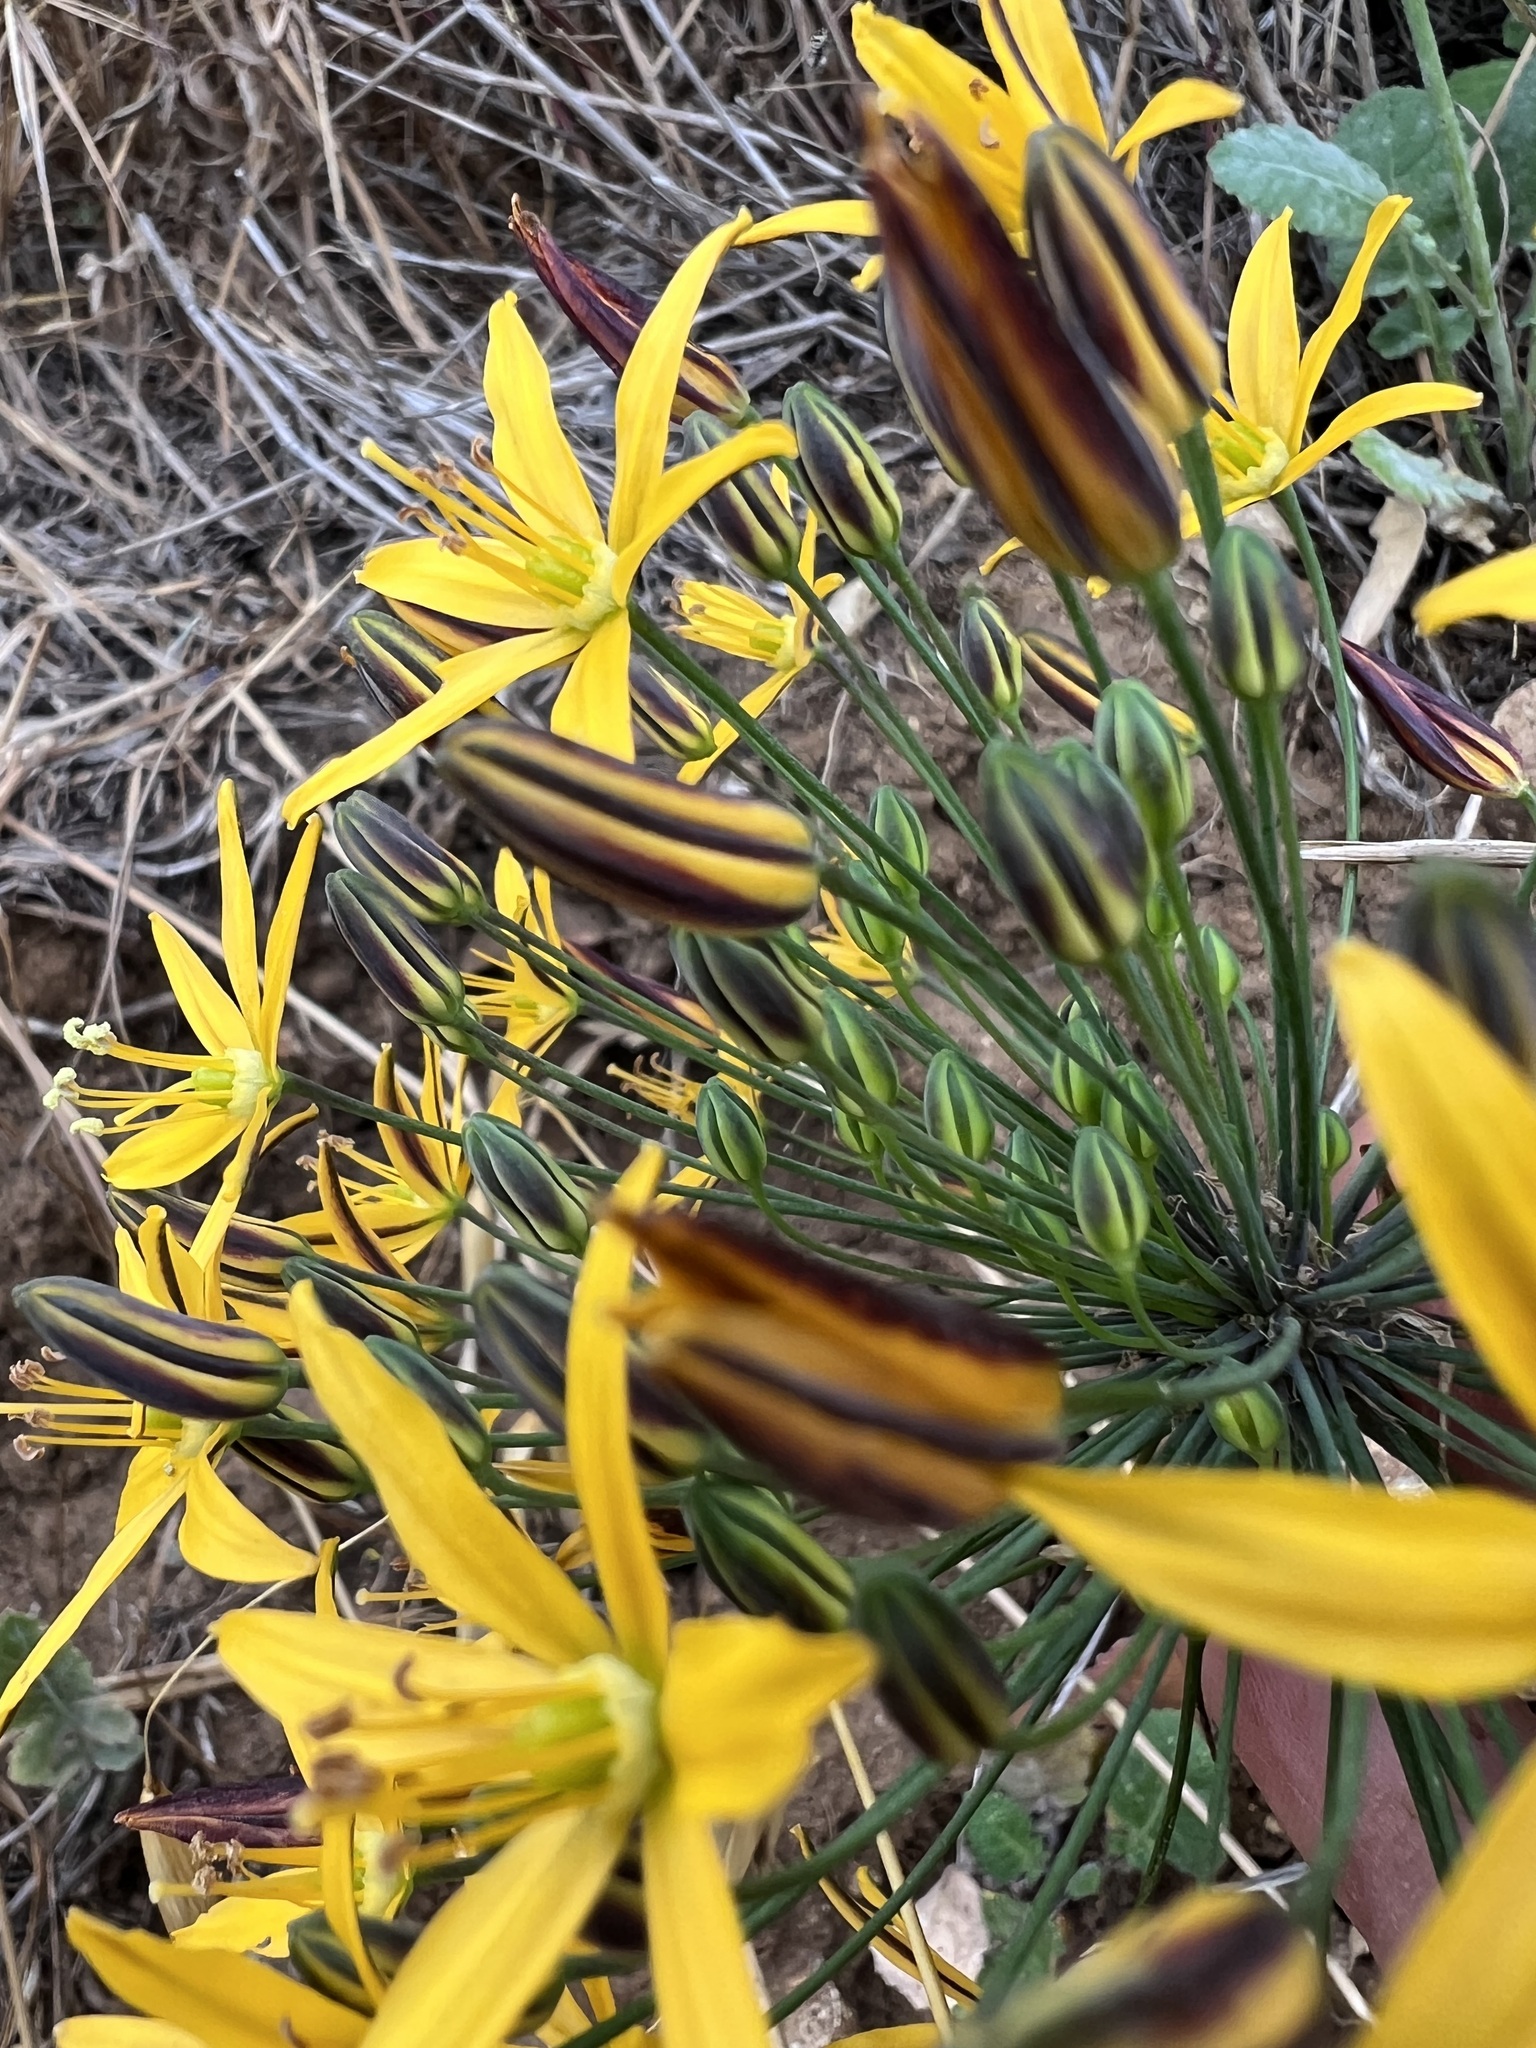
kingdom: Plantae
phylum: Tracheophyta
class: Liliopsida
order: Asparagales
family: Asparagaceae
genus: Bloomeria
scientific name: Bloomeria crocea
